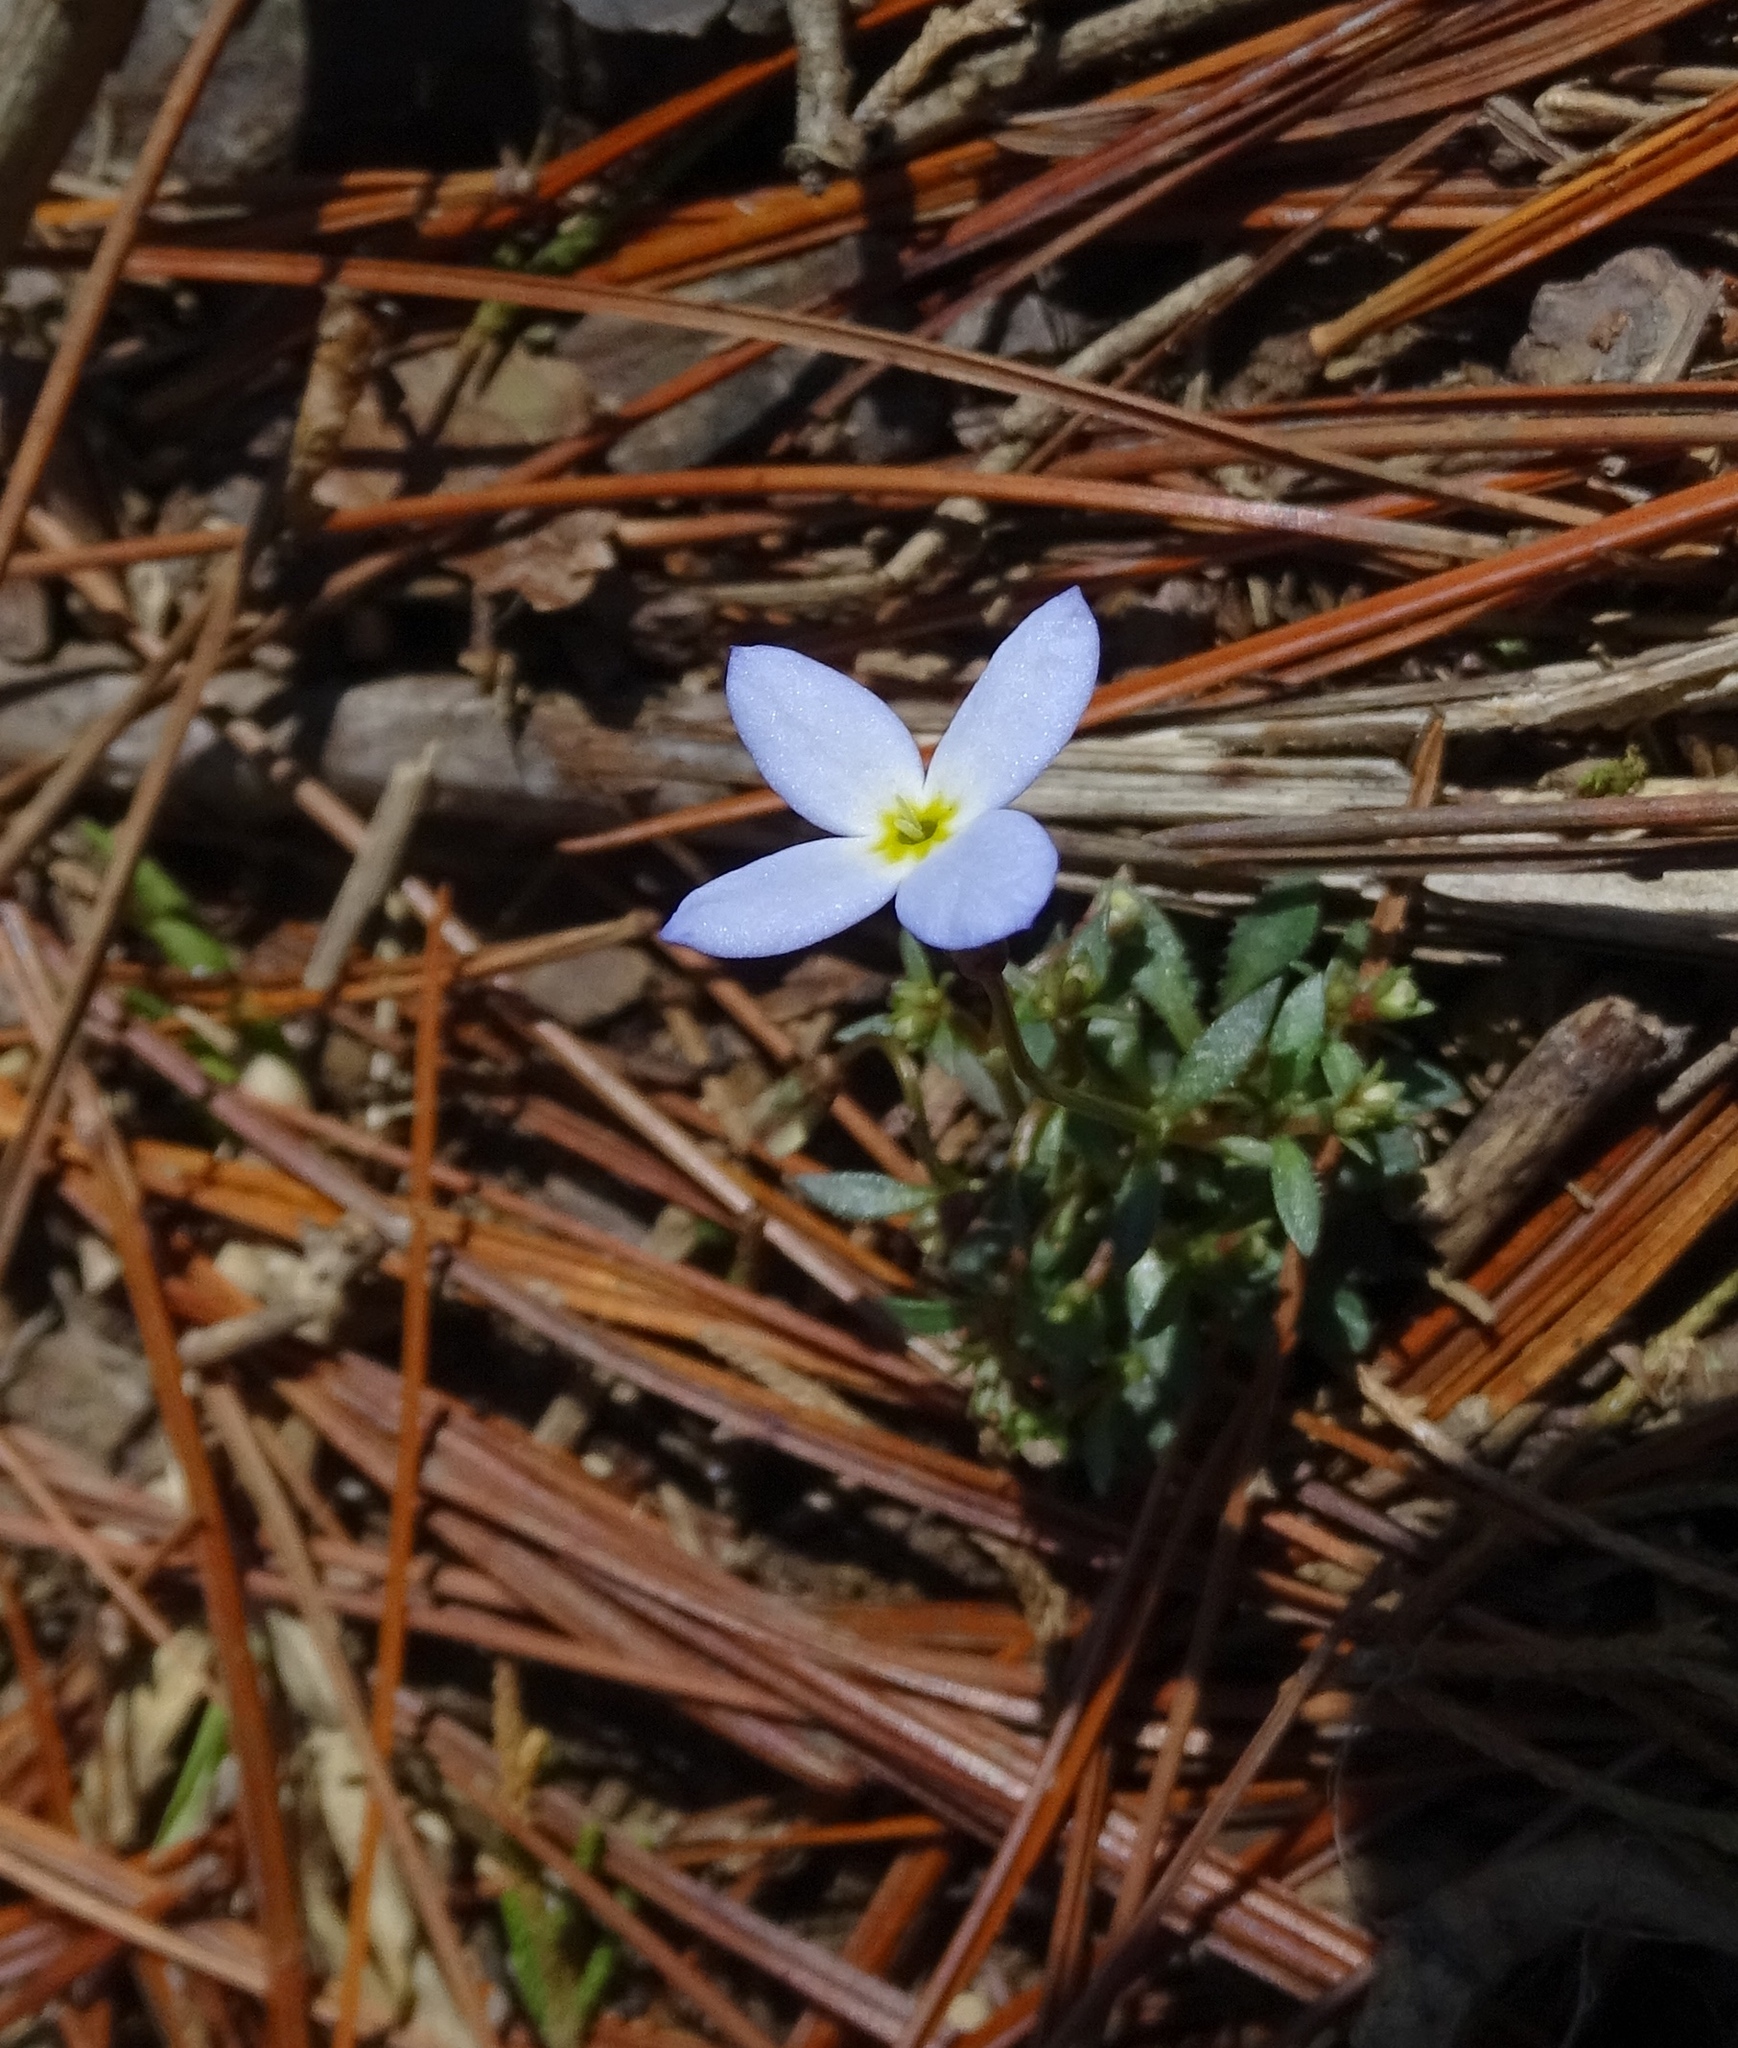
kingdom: Plantae
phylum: Tracheophyta
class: Magnoliopsida
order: Gentianales
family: Rubiaceae
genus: Houstonia
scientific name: Houstonia caerulea
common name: Bluets
